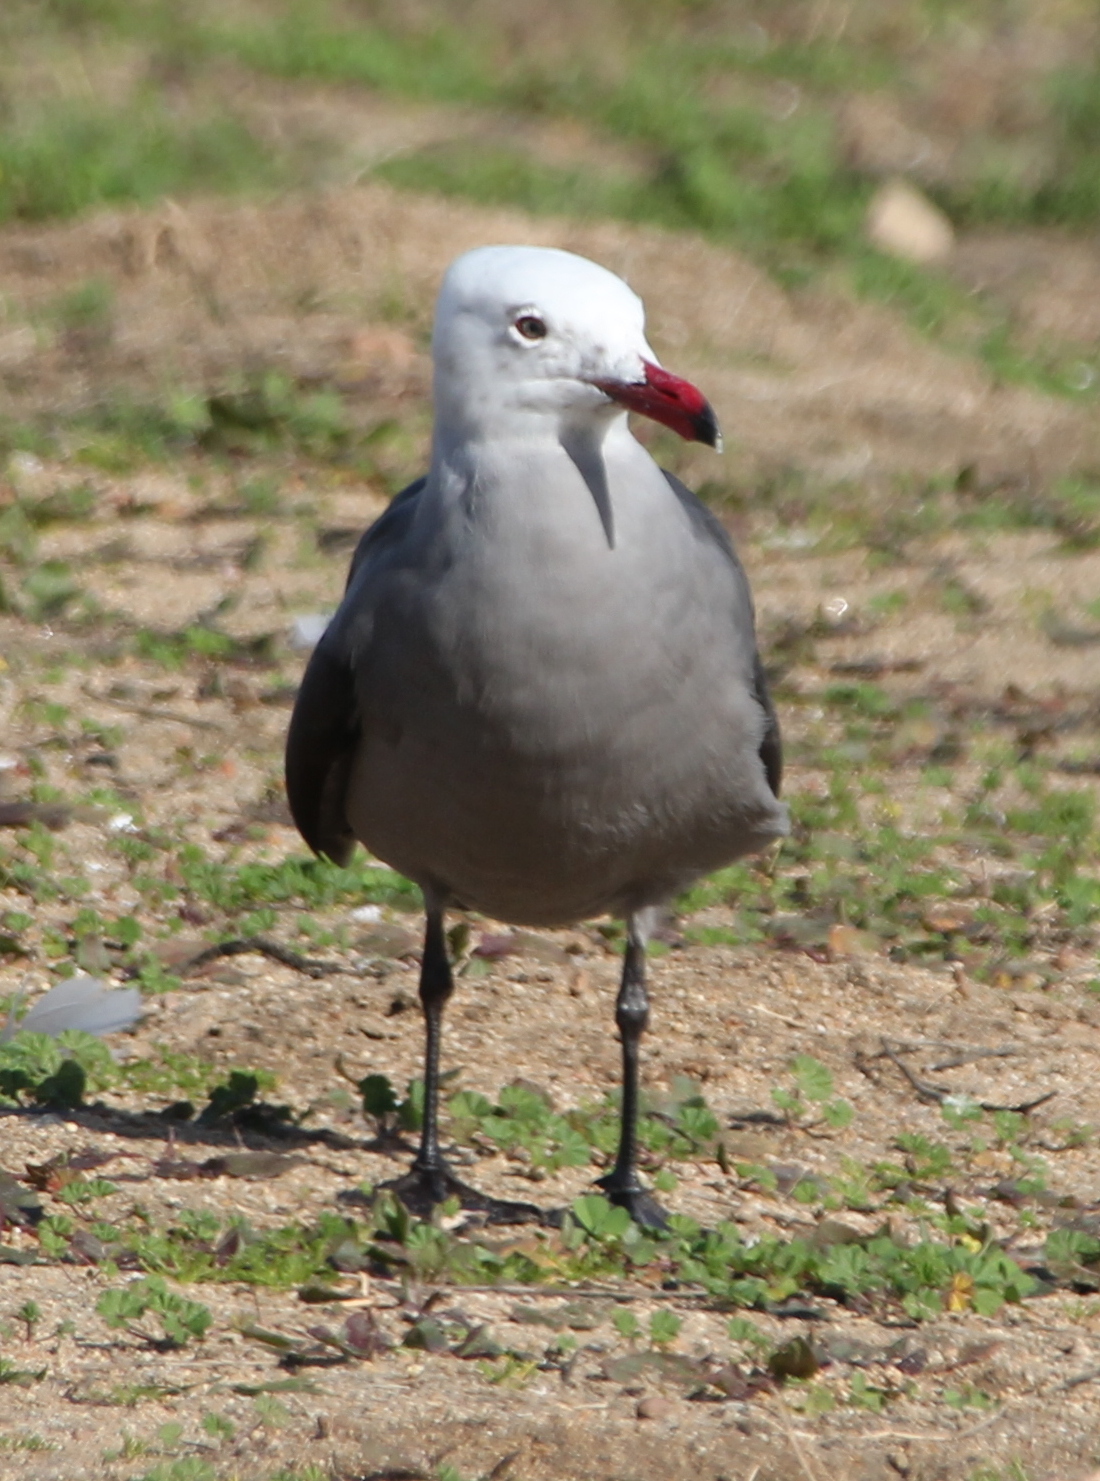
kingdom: Animalia
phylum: Chordata
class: Aves
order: Charadriiformes
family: Laridae
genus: Larus
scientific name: Larus heermanni
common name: Heermann's gull
